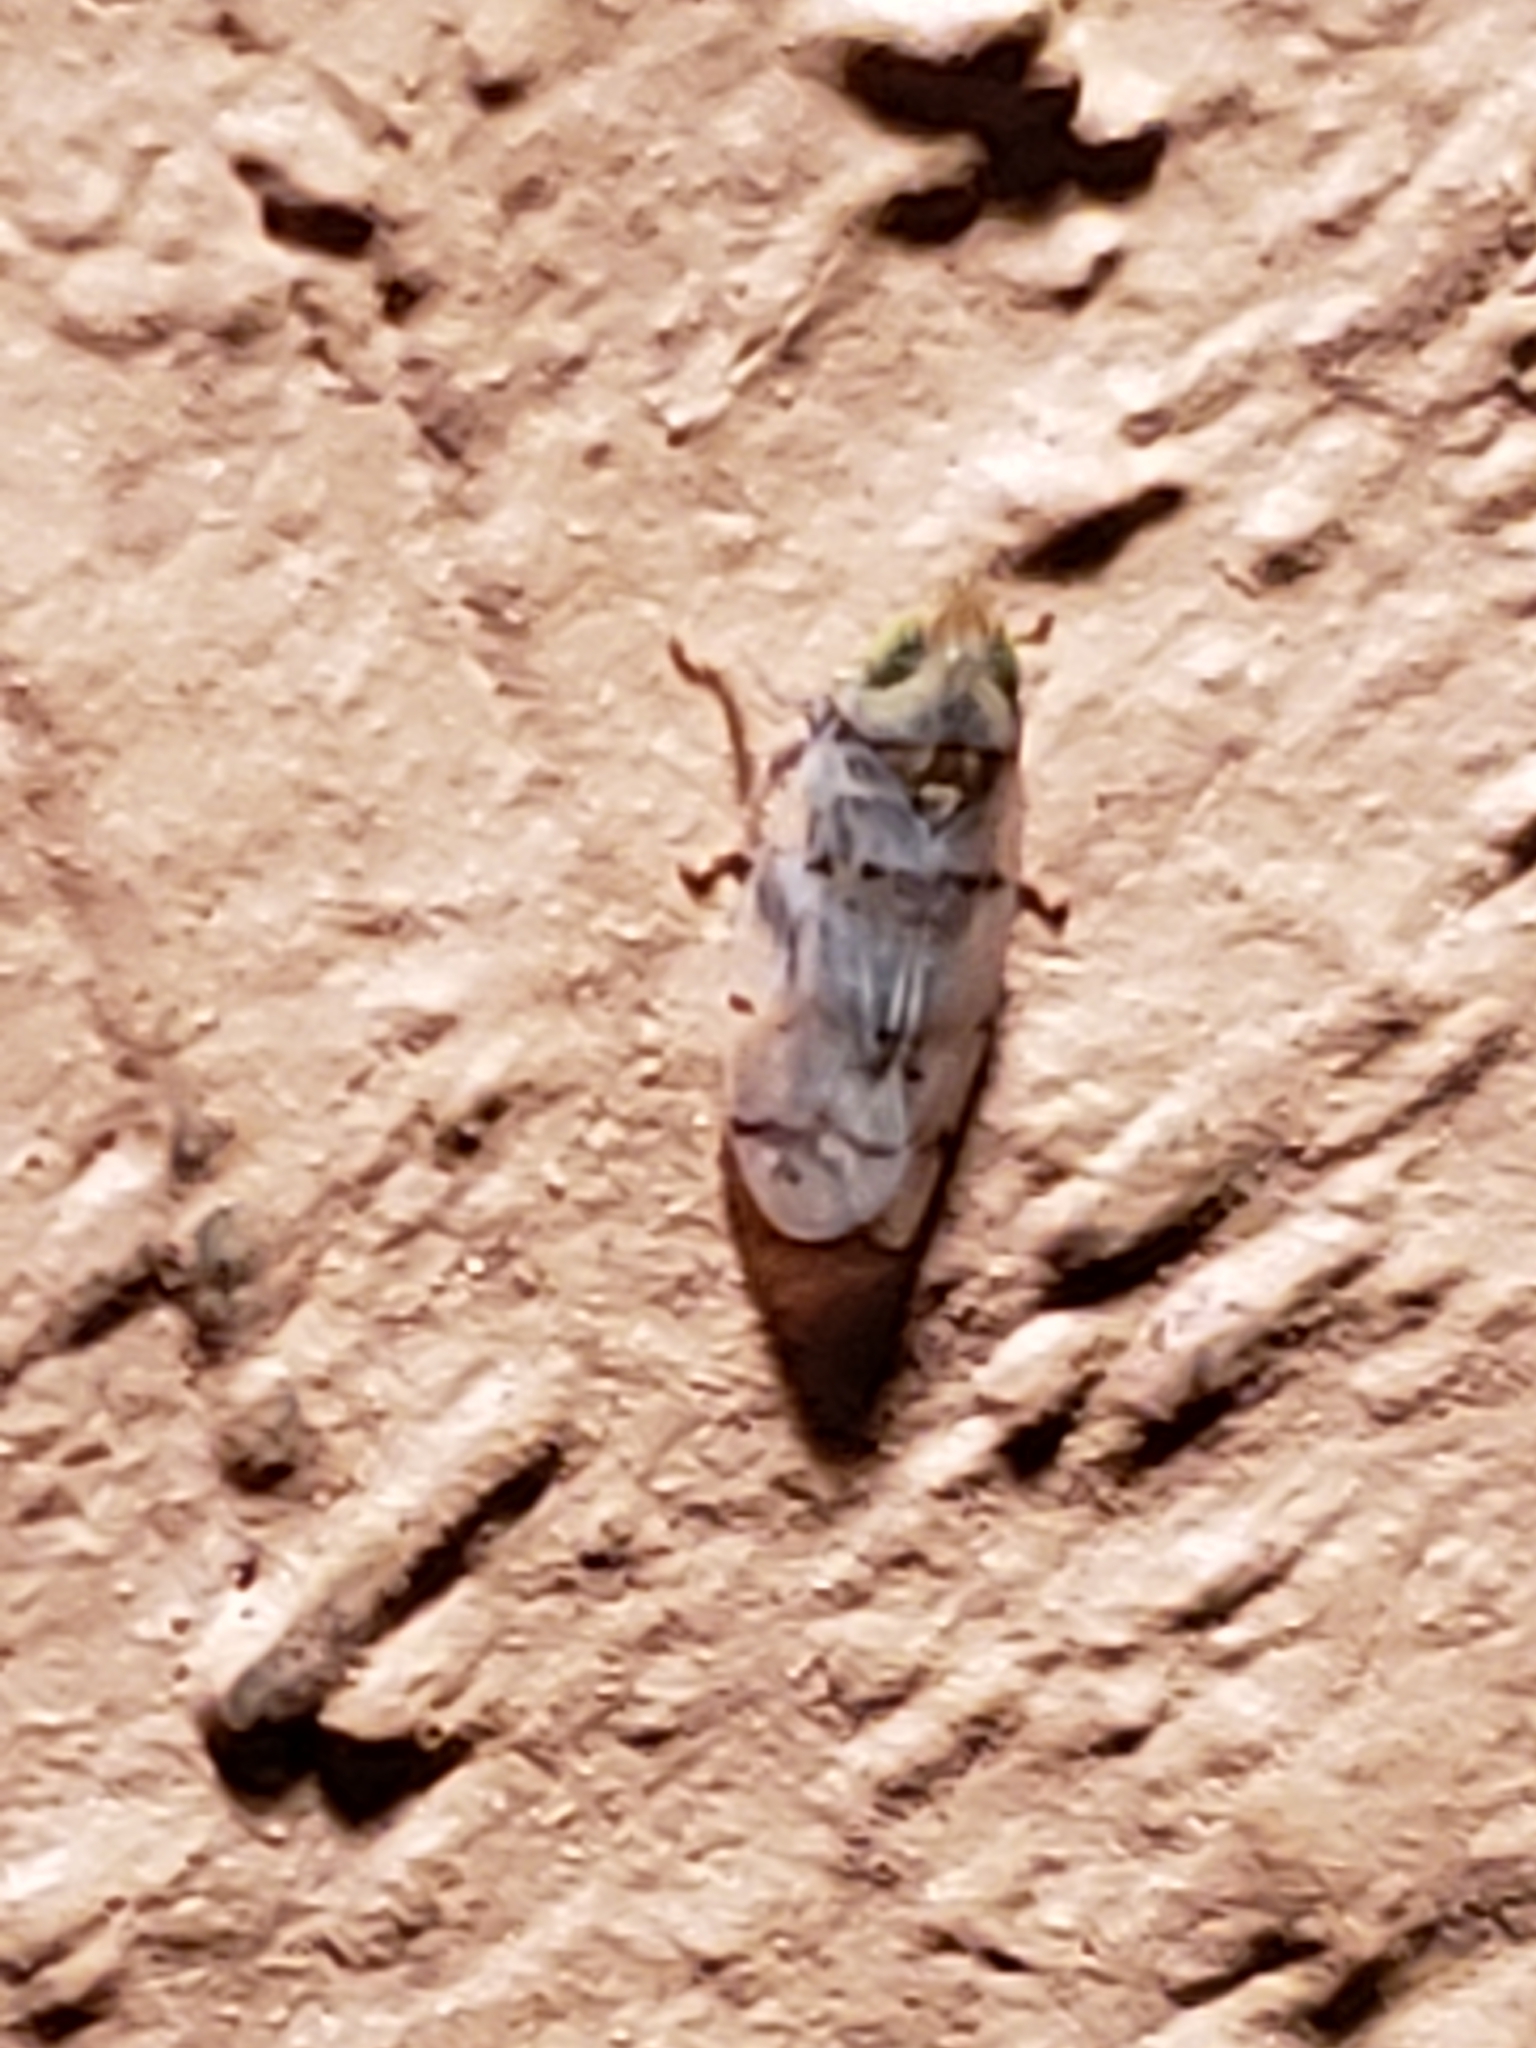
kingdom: Animalia
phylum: Arthropoda
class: Insecta
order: Hemiptera
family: Cicadellidae
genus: Japananus
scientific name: Japananus hyalinus
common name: The japanese maple leafhopper
